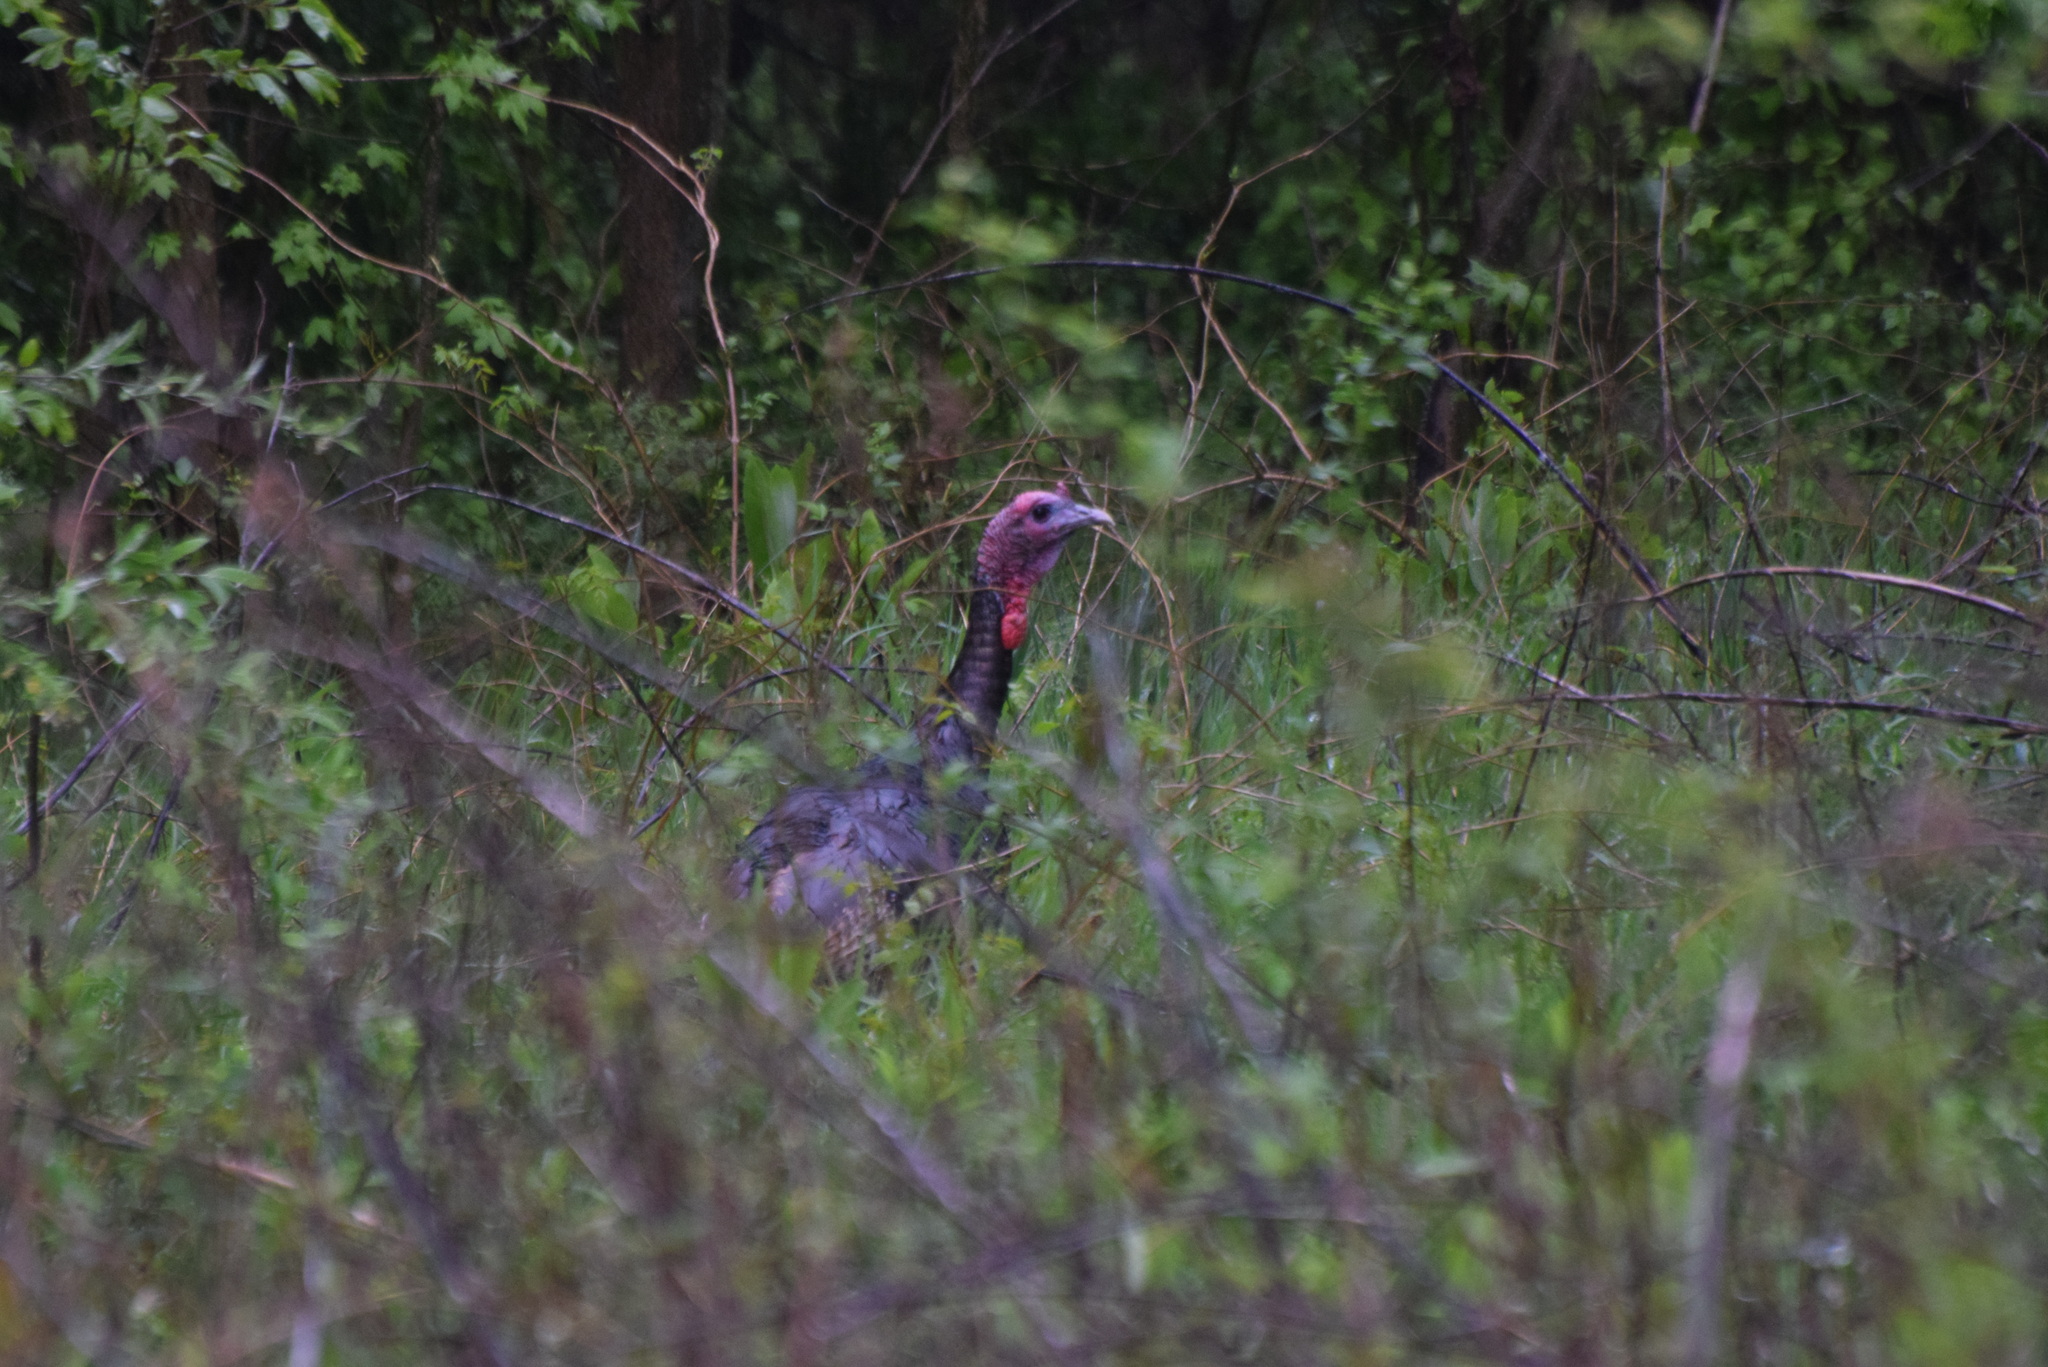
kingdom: Animalia
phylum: Chordata
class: Aves
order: Galliformes
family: Phasianidae
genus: Meleagris
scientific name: Meleagris gallopavo
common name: Wild turkey
